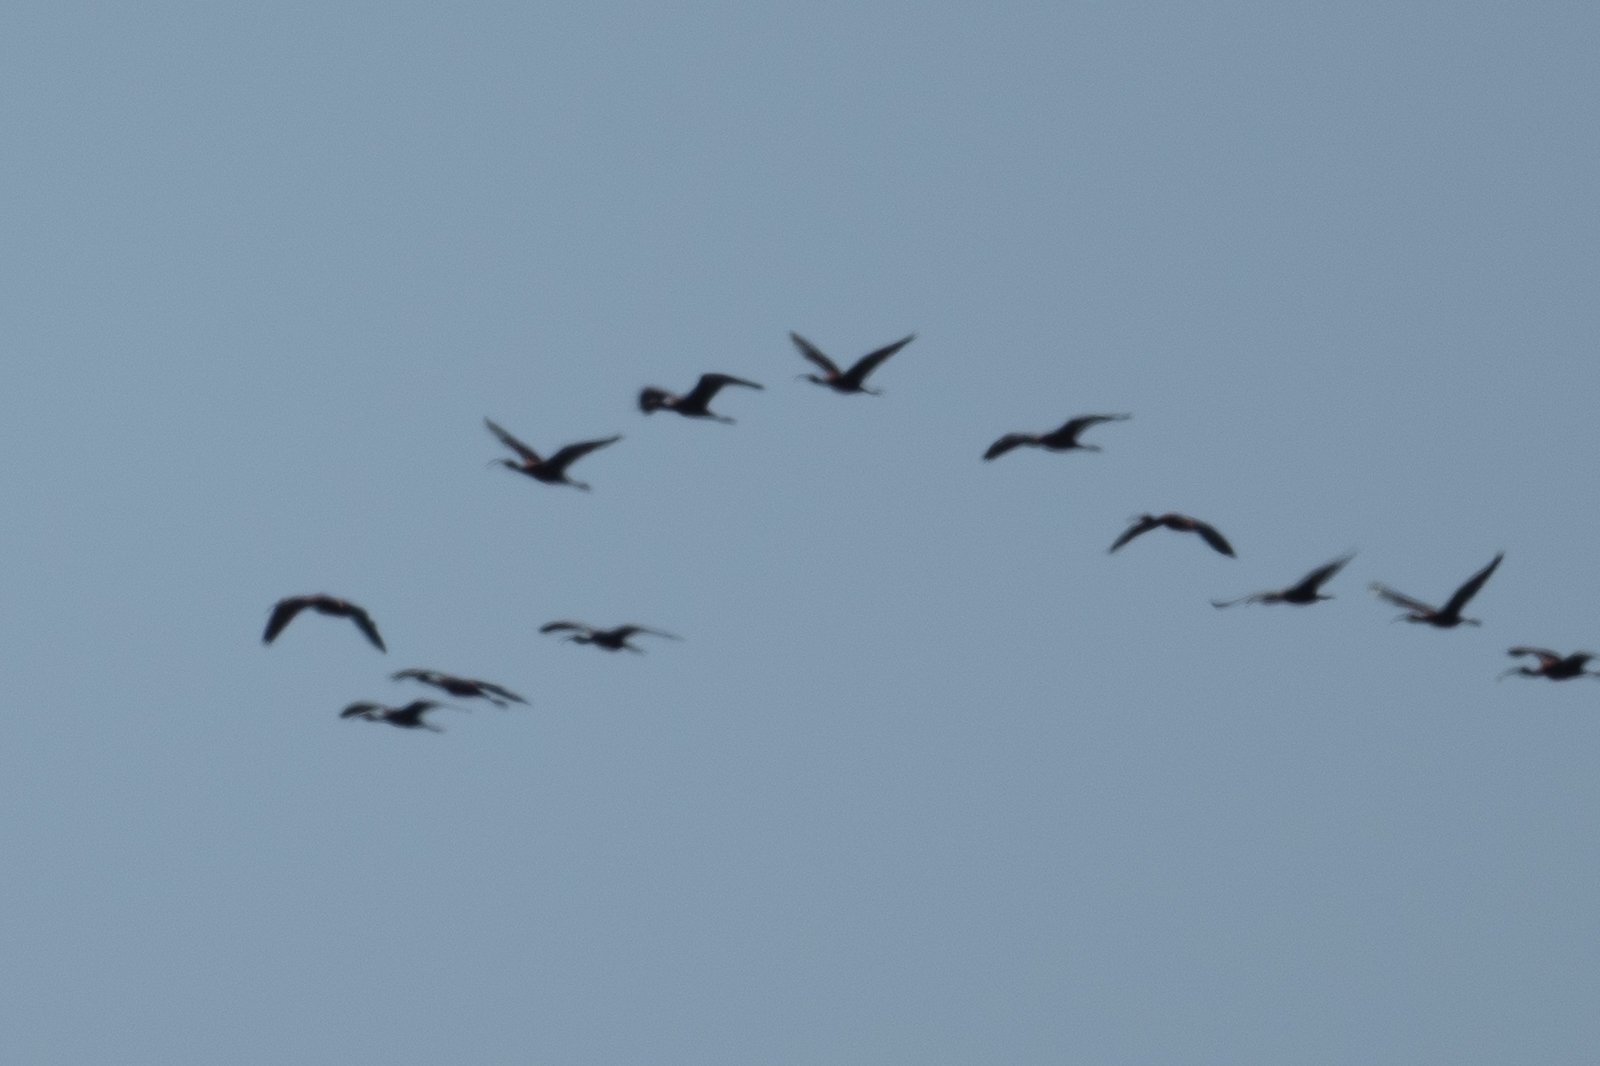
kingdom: Animalia
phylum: Chordata
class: Aves
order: Pelecaniformes
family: Threskiornithidae
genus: Plegadis
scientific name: Plegadis chihi
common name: White-faced ibis
